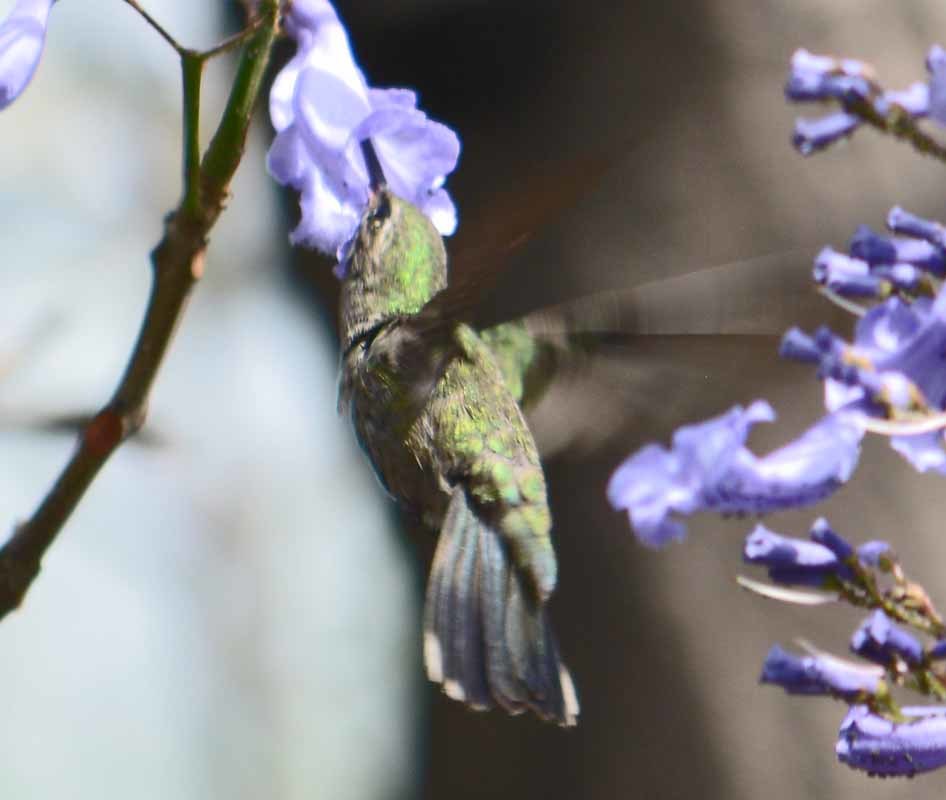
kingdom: Animalia
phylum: Chordata
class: Aves
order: Apodiformes
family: Trochilidae
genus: Cynanthus
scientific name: Cynanthus latirostris
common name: Broad-billed hummingbird
